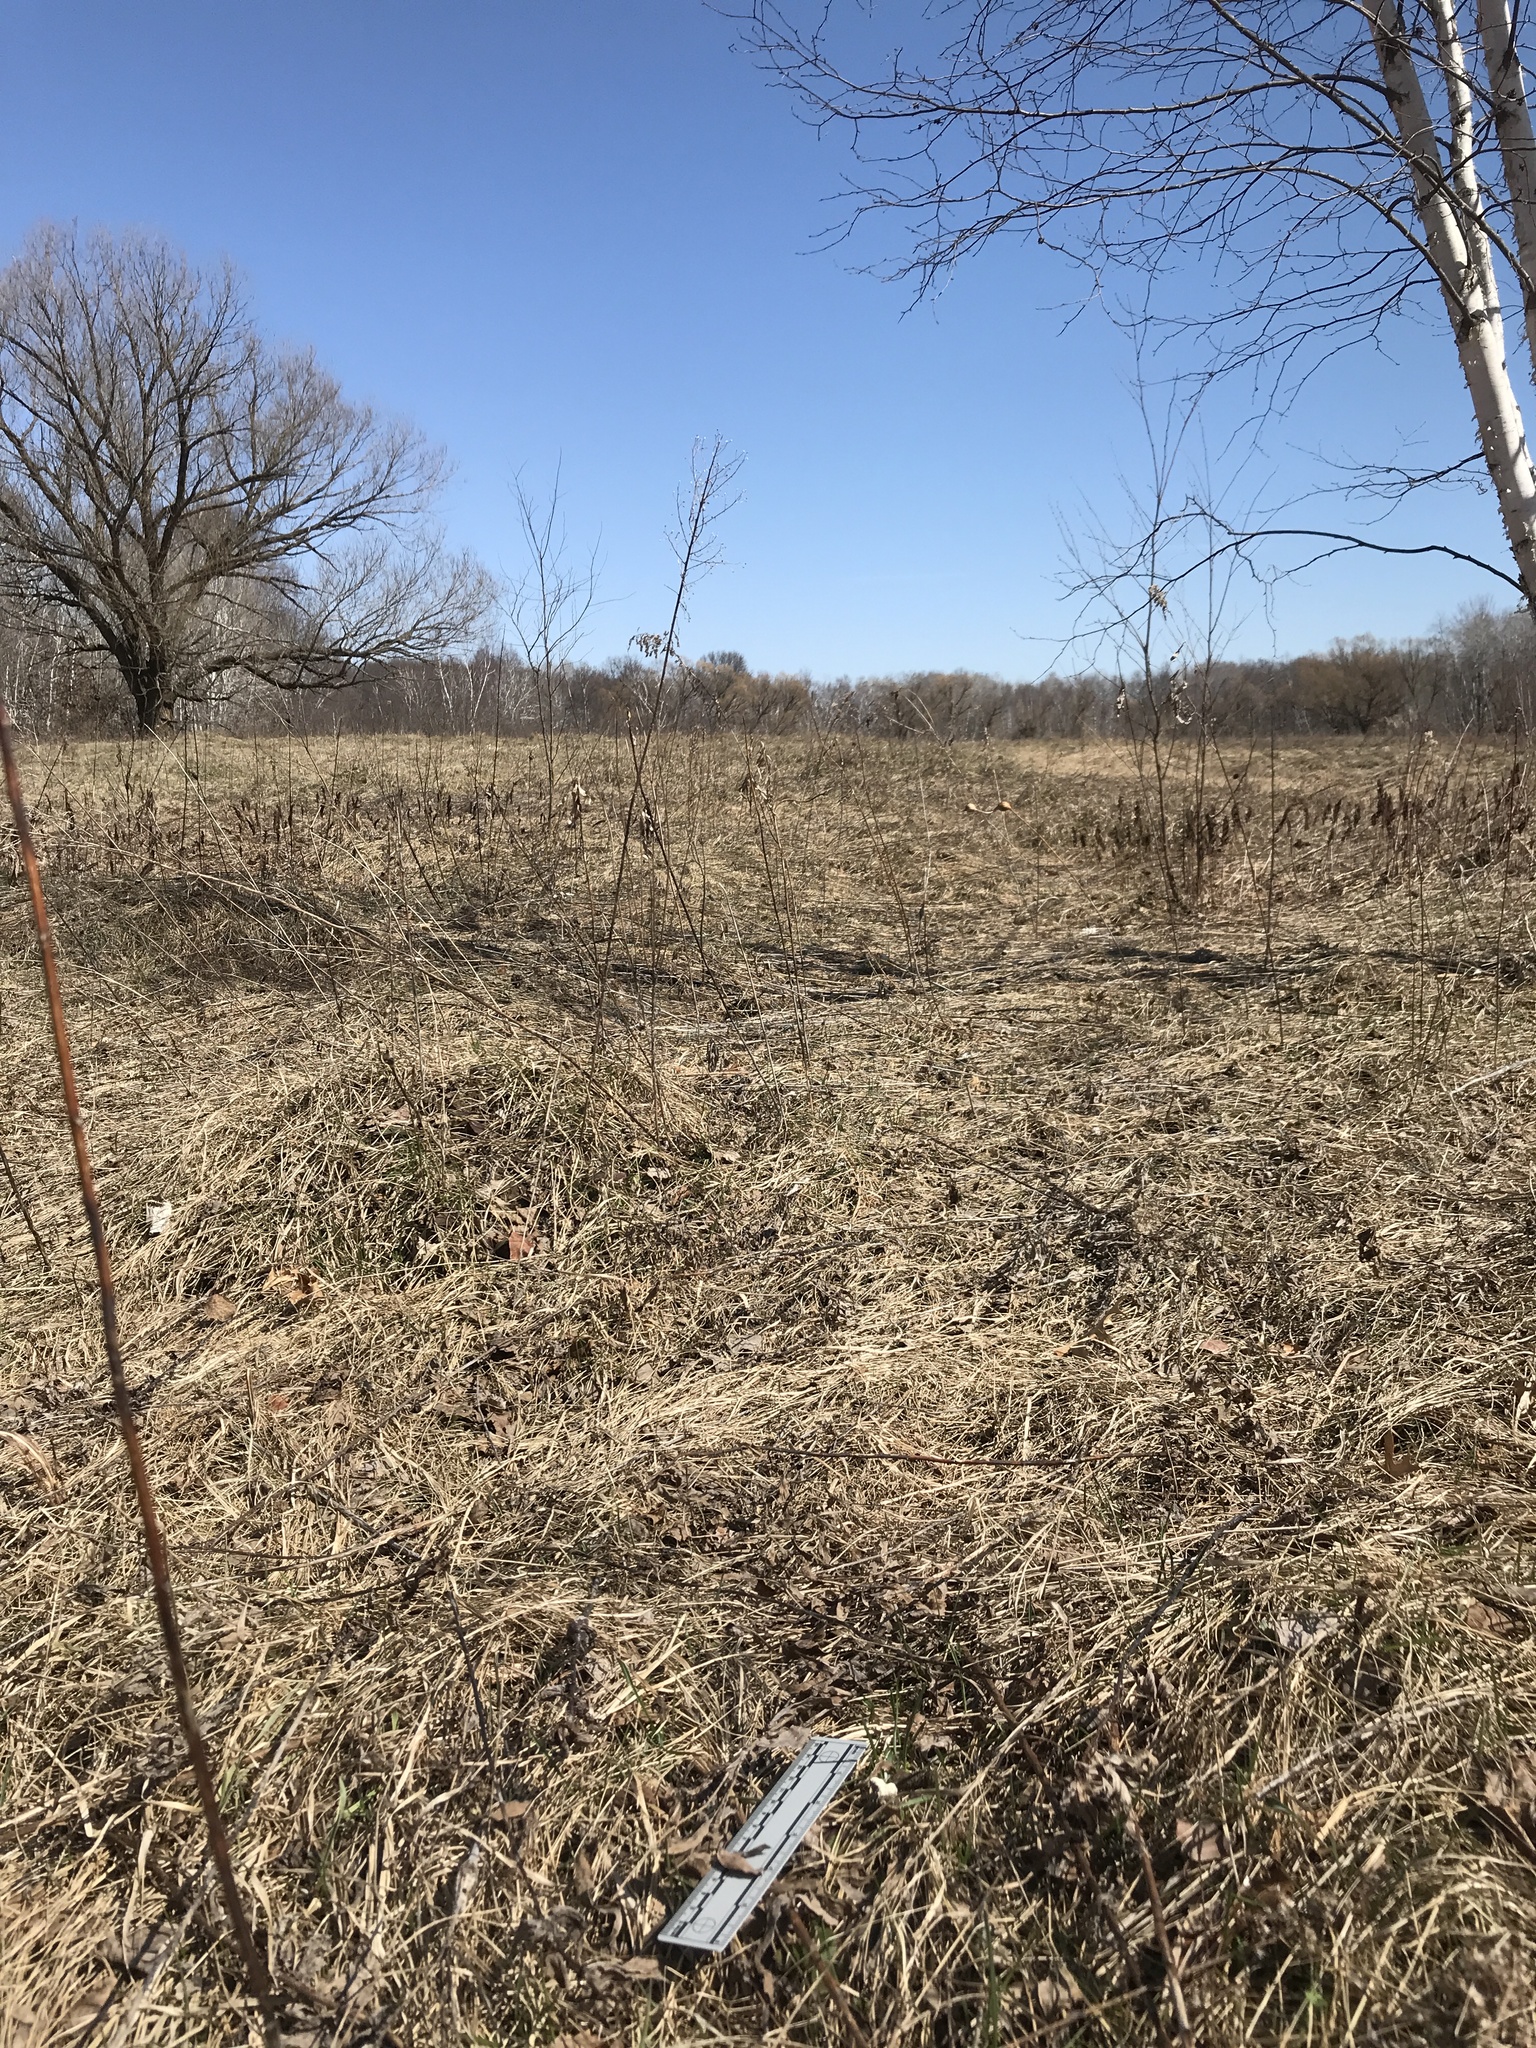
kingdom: Animalia
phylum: Chordata
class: Aves
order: Galliformes
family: Phasianidae
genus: Meleagris
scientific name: Meleagris gallopavo
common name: Wild turkey
